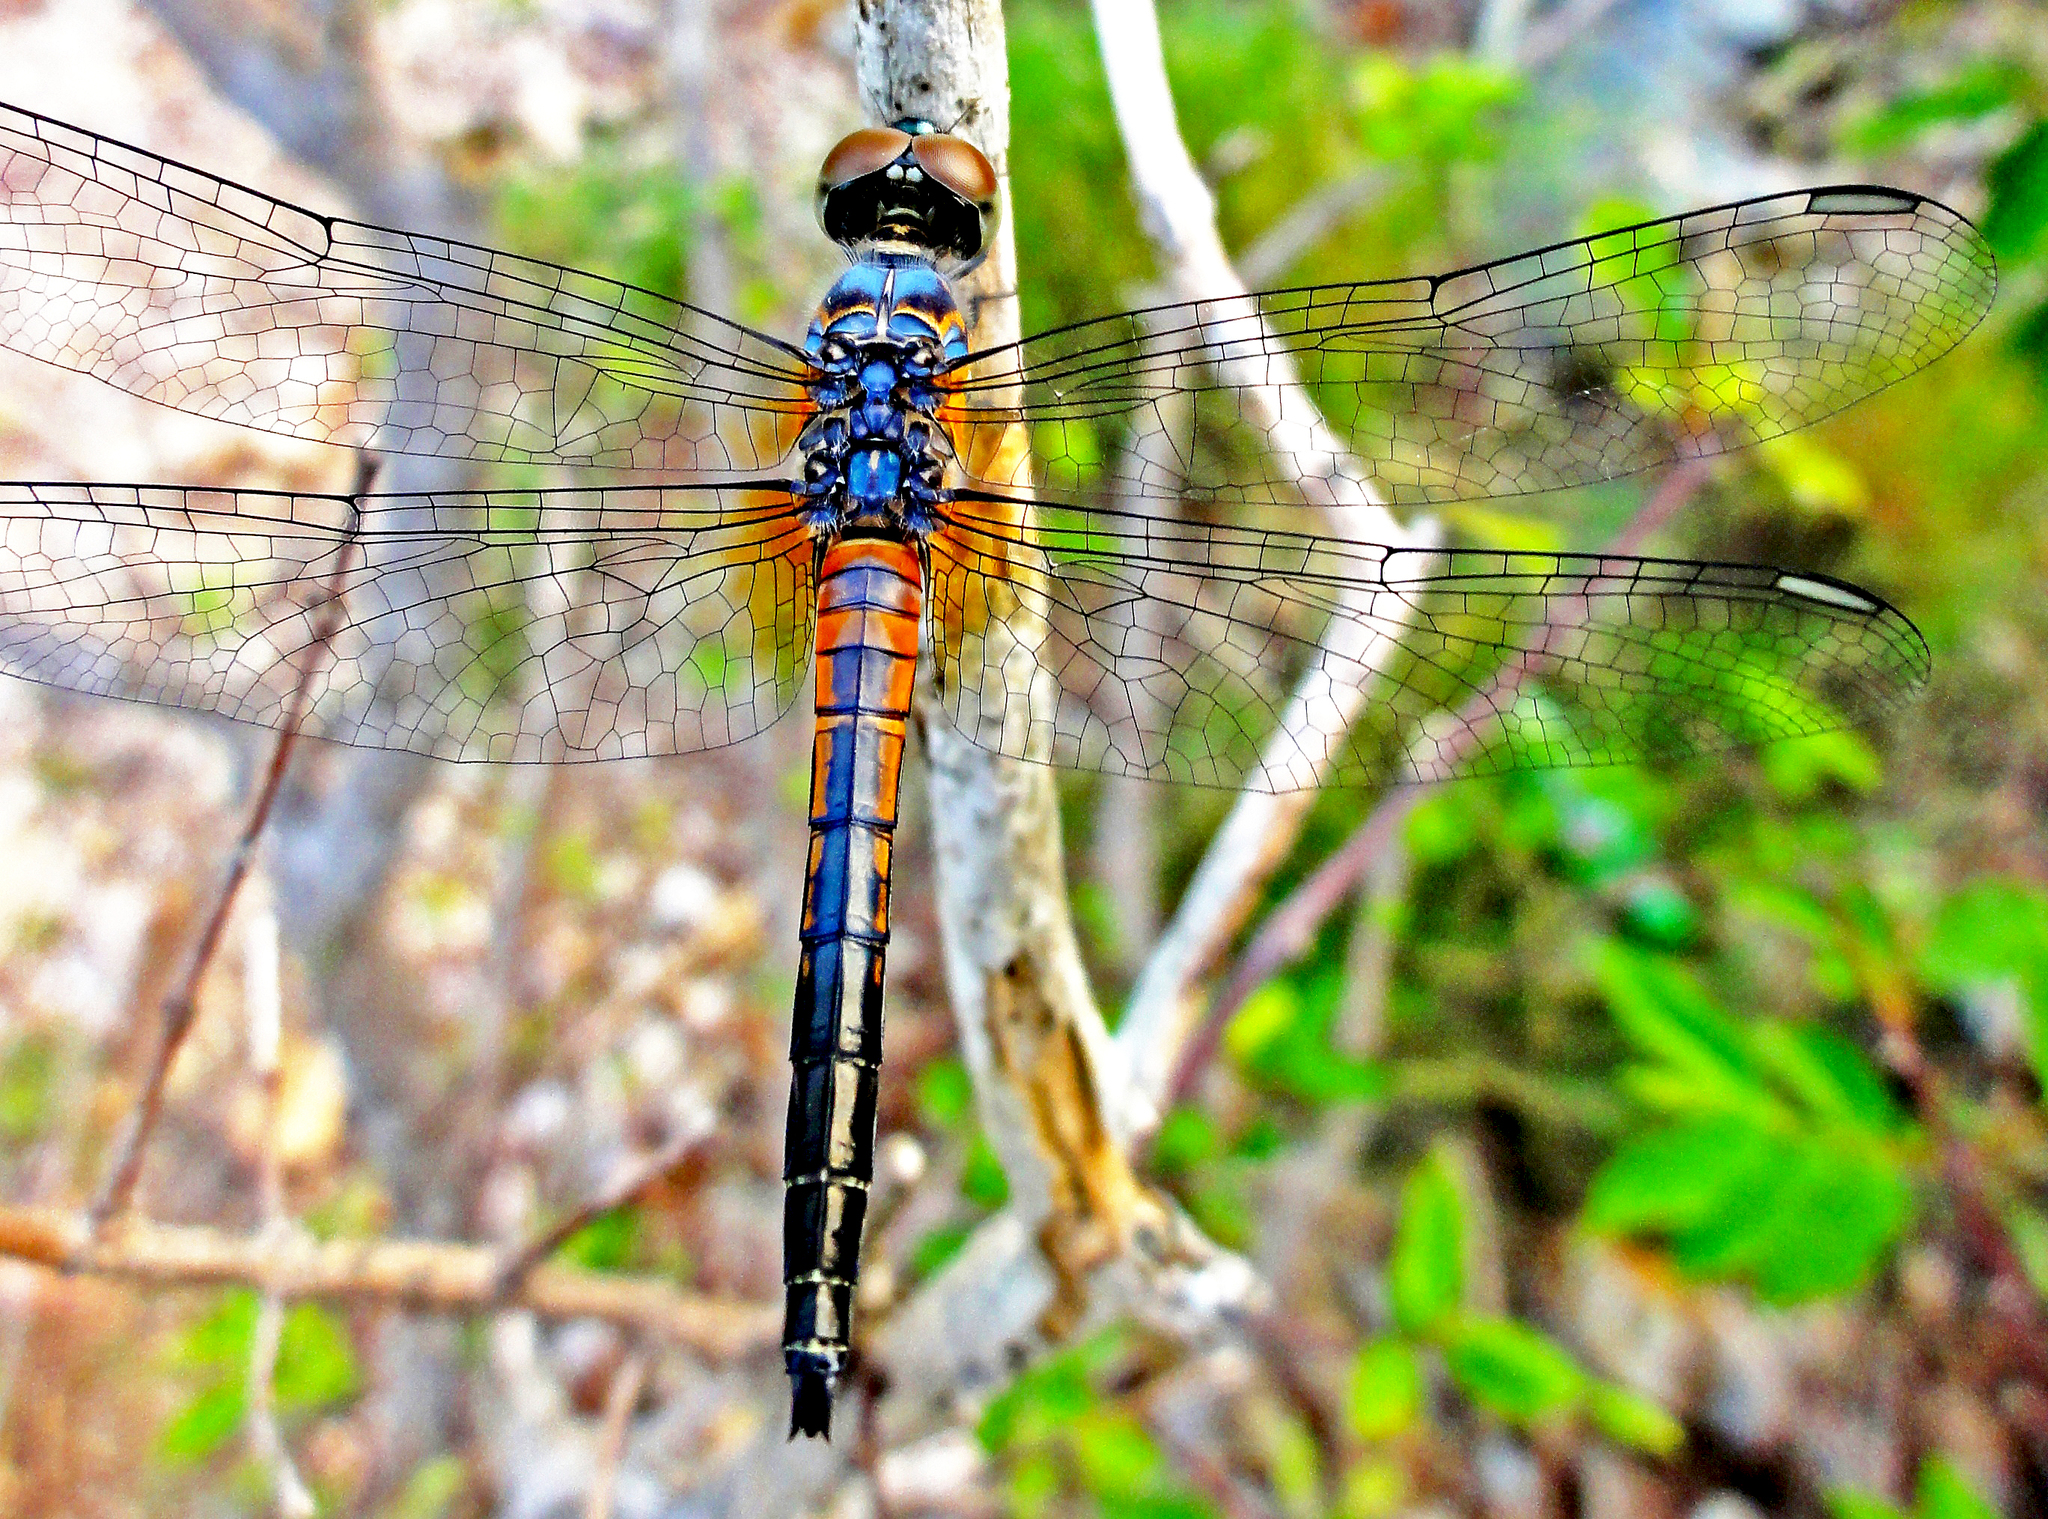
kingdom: Animalia
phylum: Arthropoda
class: Insecta
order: Odonata
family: Libellulidae
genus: Brachydiplax
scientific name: Brachydiplax chalybea
